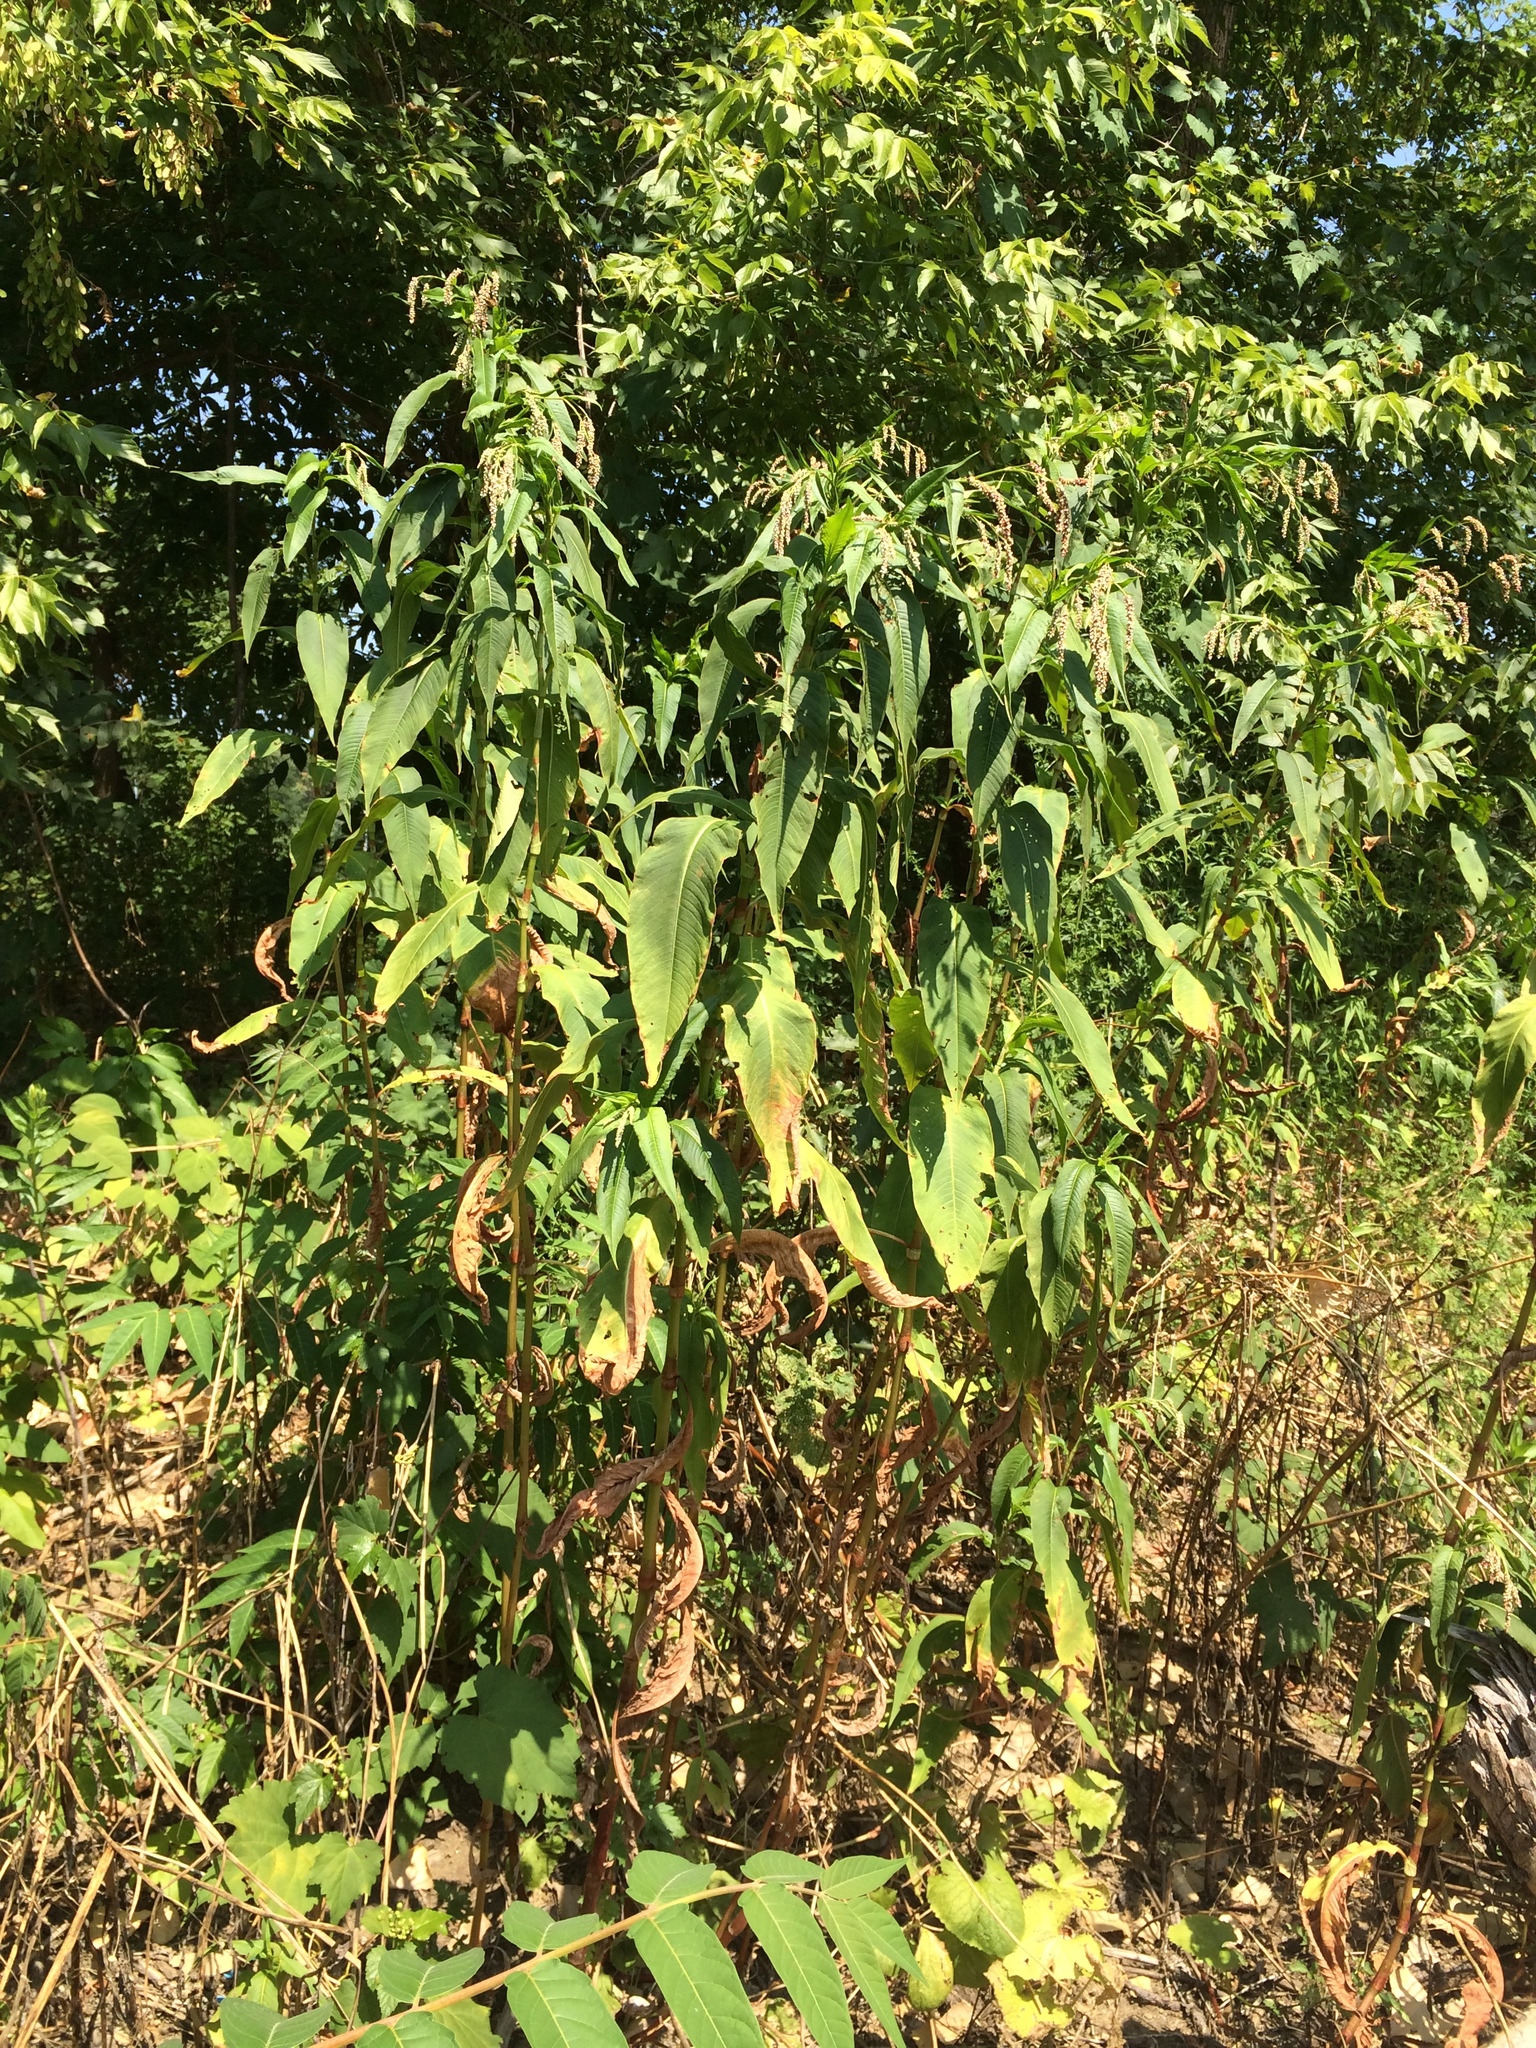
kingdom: Plantae
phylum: Tracheophyta
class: Magnoliopsida
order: Caryophyllales
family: Polygonaceae
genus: Persicaria
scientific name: Persicaria extremiorientalis
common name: Far-eastern smartweed
